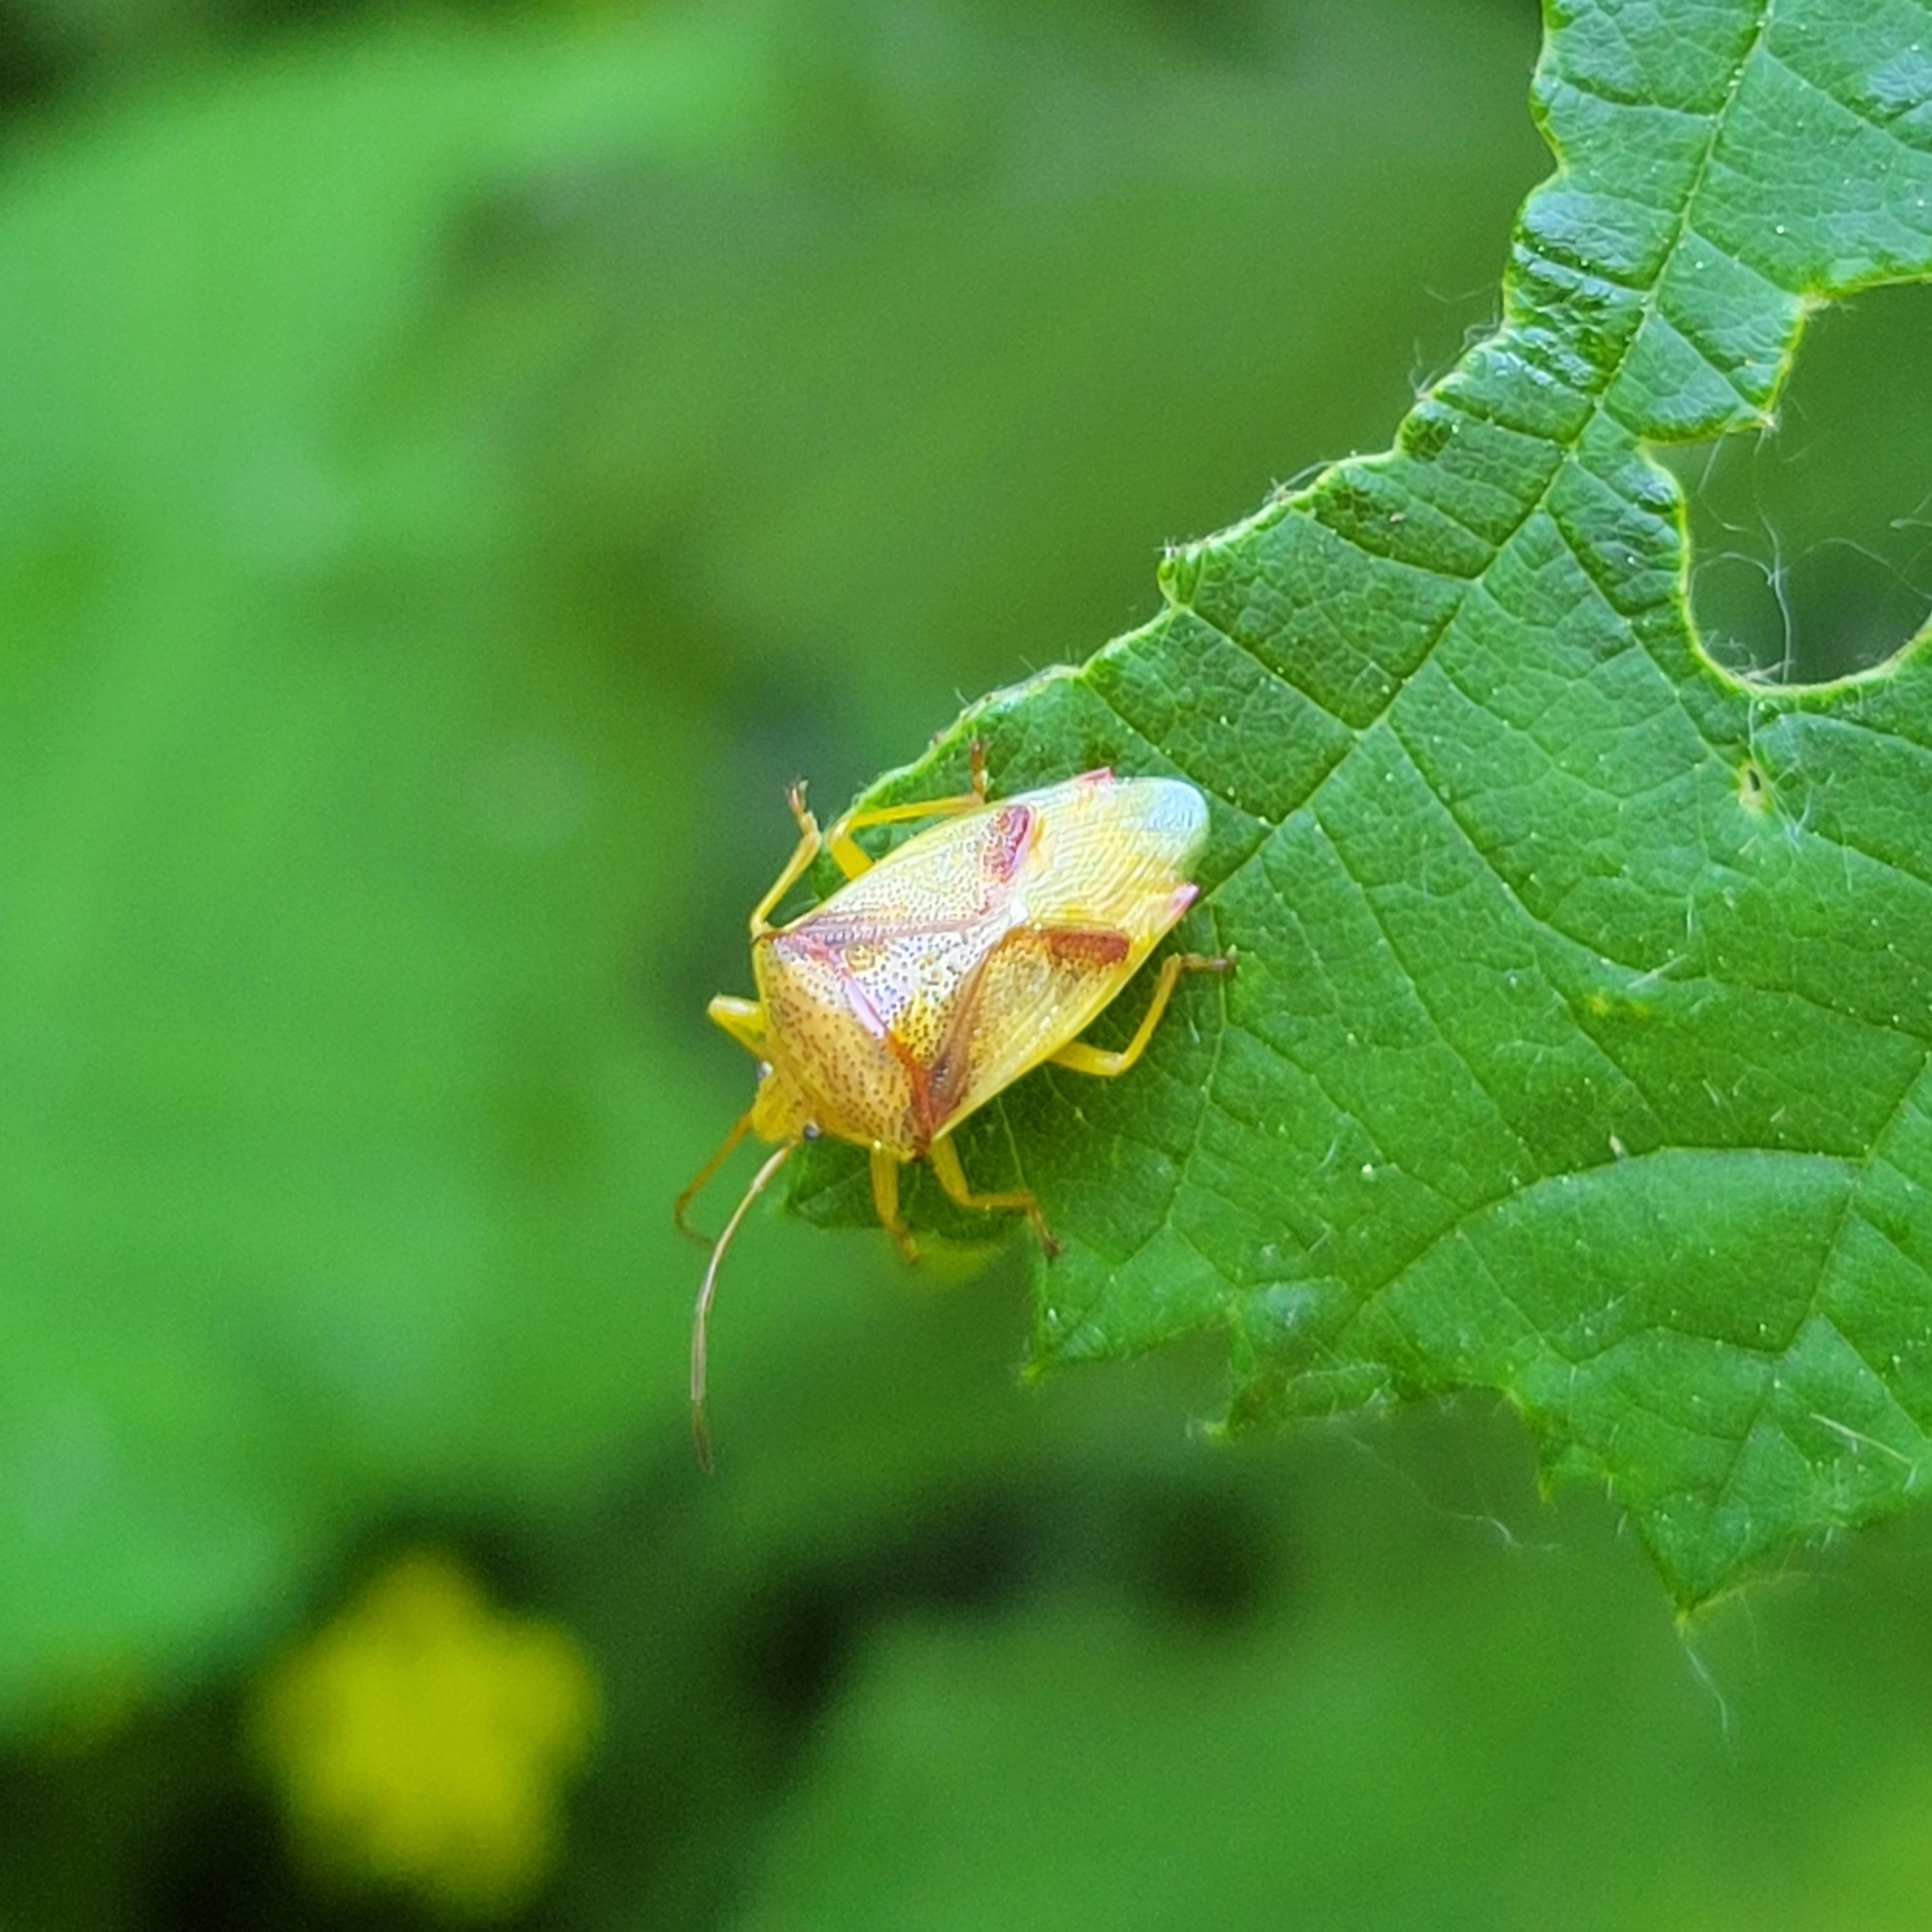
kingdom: Animalia
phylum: Arthropoda
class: Insecta
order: Hemiptera
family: Acanthosomatidae
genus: Elasmostethus
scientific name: Elasmostethus cruciatus
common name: Red-cross shield bug
